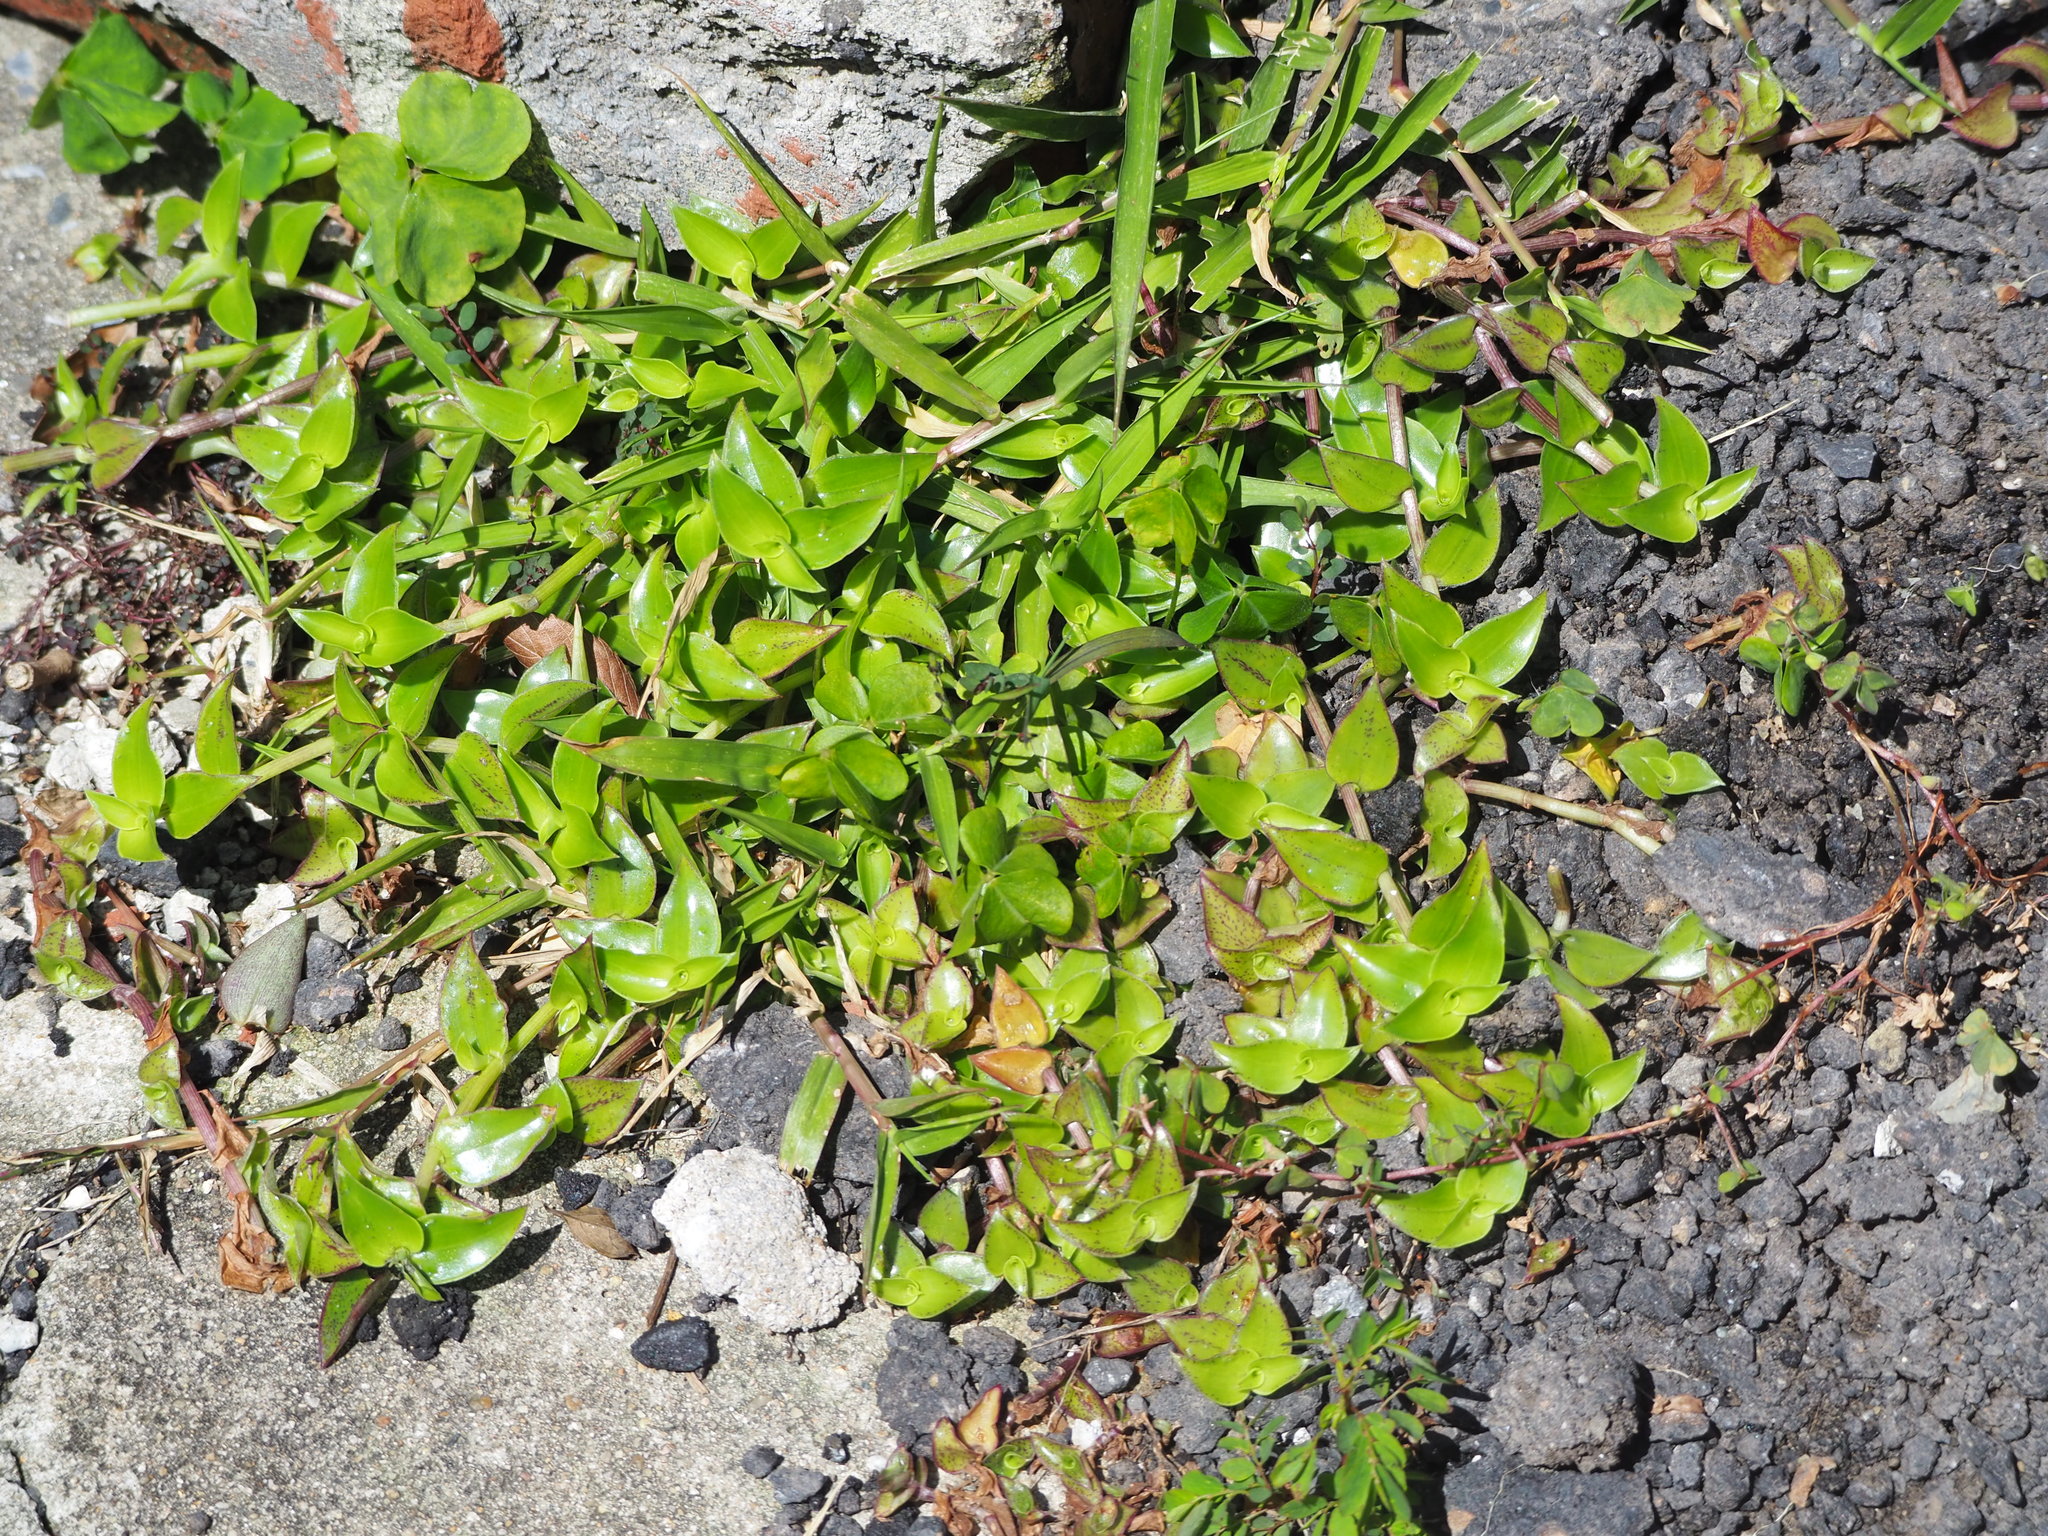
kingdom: Plantae
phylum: Tracheophyta
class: Liliopsida
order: Commelinales
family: Commelinaceae
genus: Callisia
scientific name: Callisia repens
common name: Creeping inchplant
